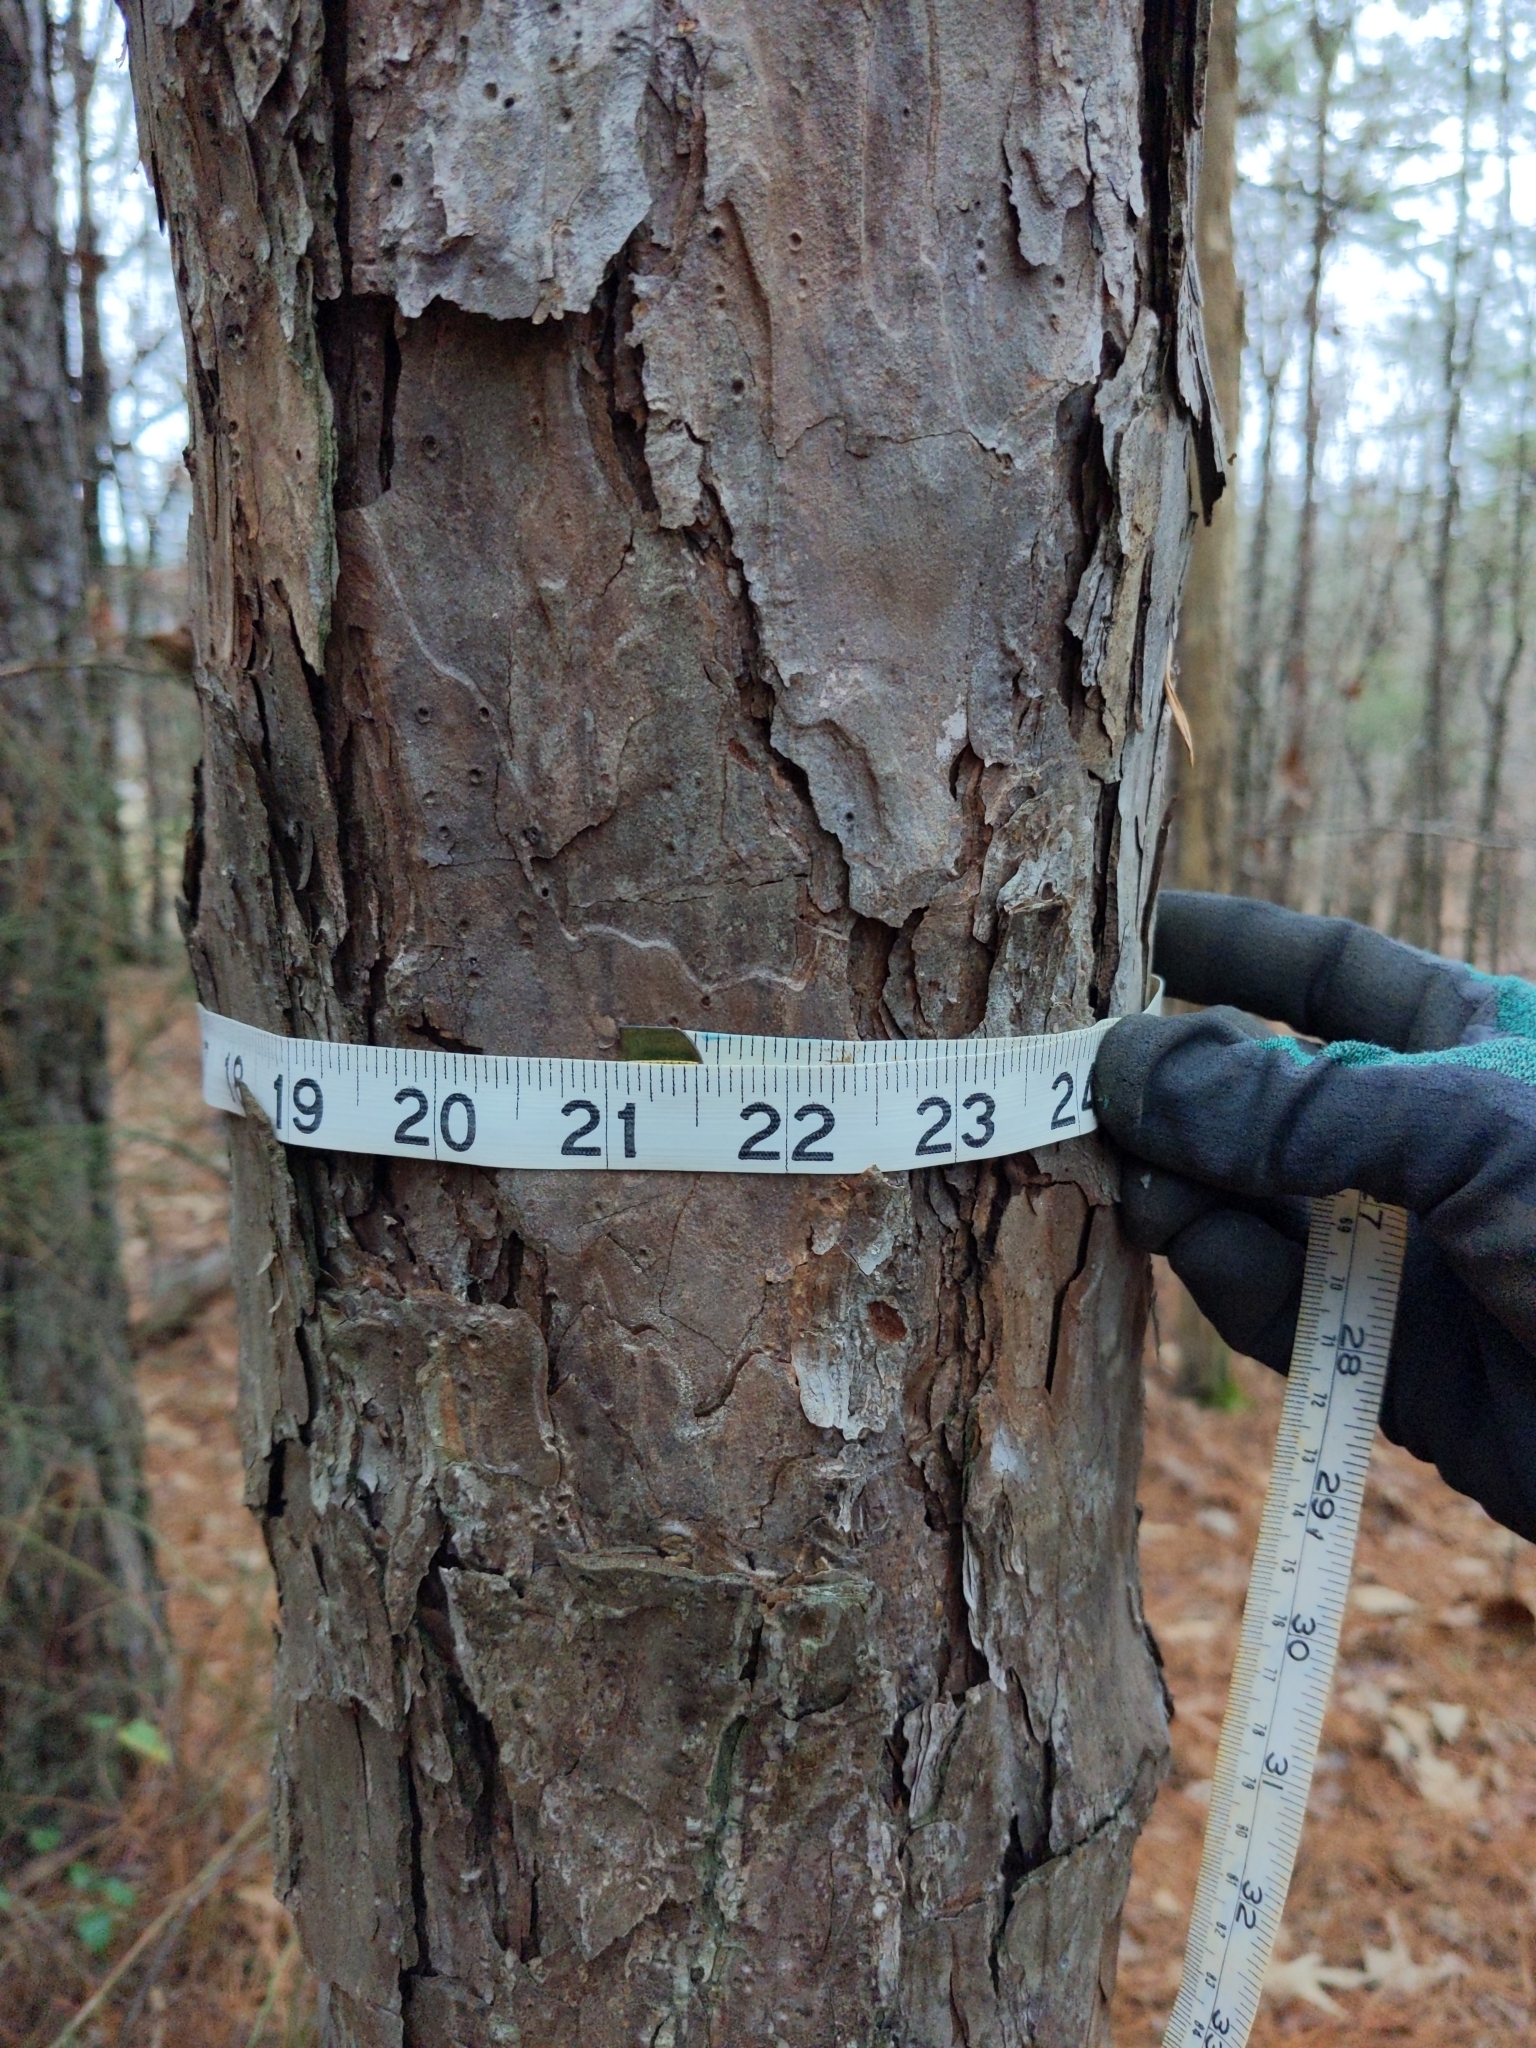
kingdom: Plantae
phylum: Tracheophyta
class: Pinopsida
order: Pinales
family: Pinaceae
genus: Pinus
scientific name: Pinus echinata
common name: Shortleaf pine
